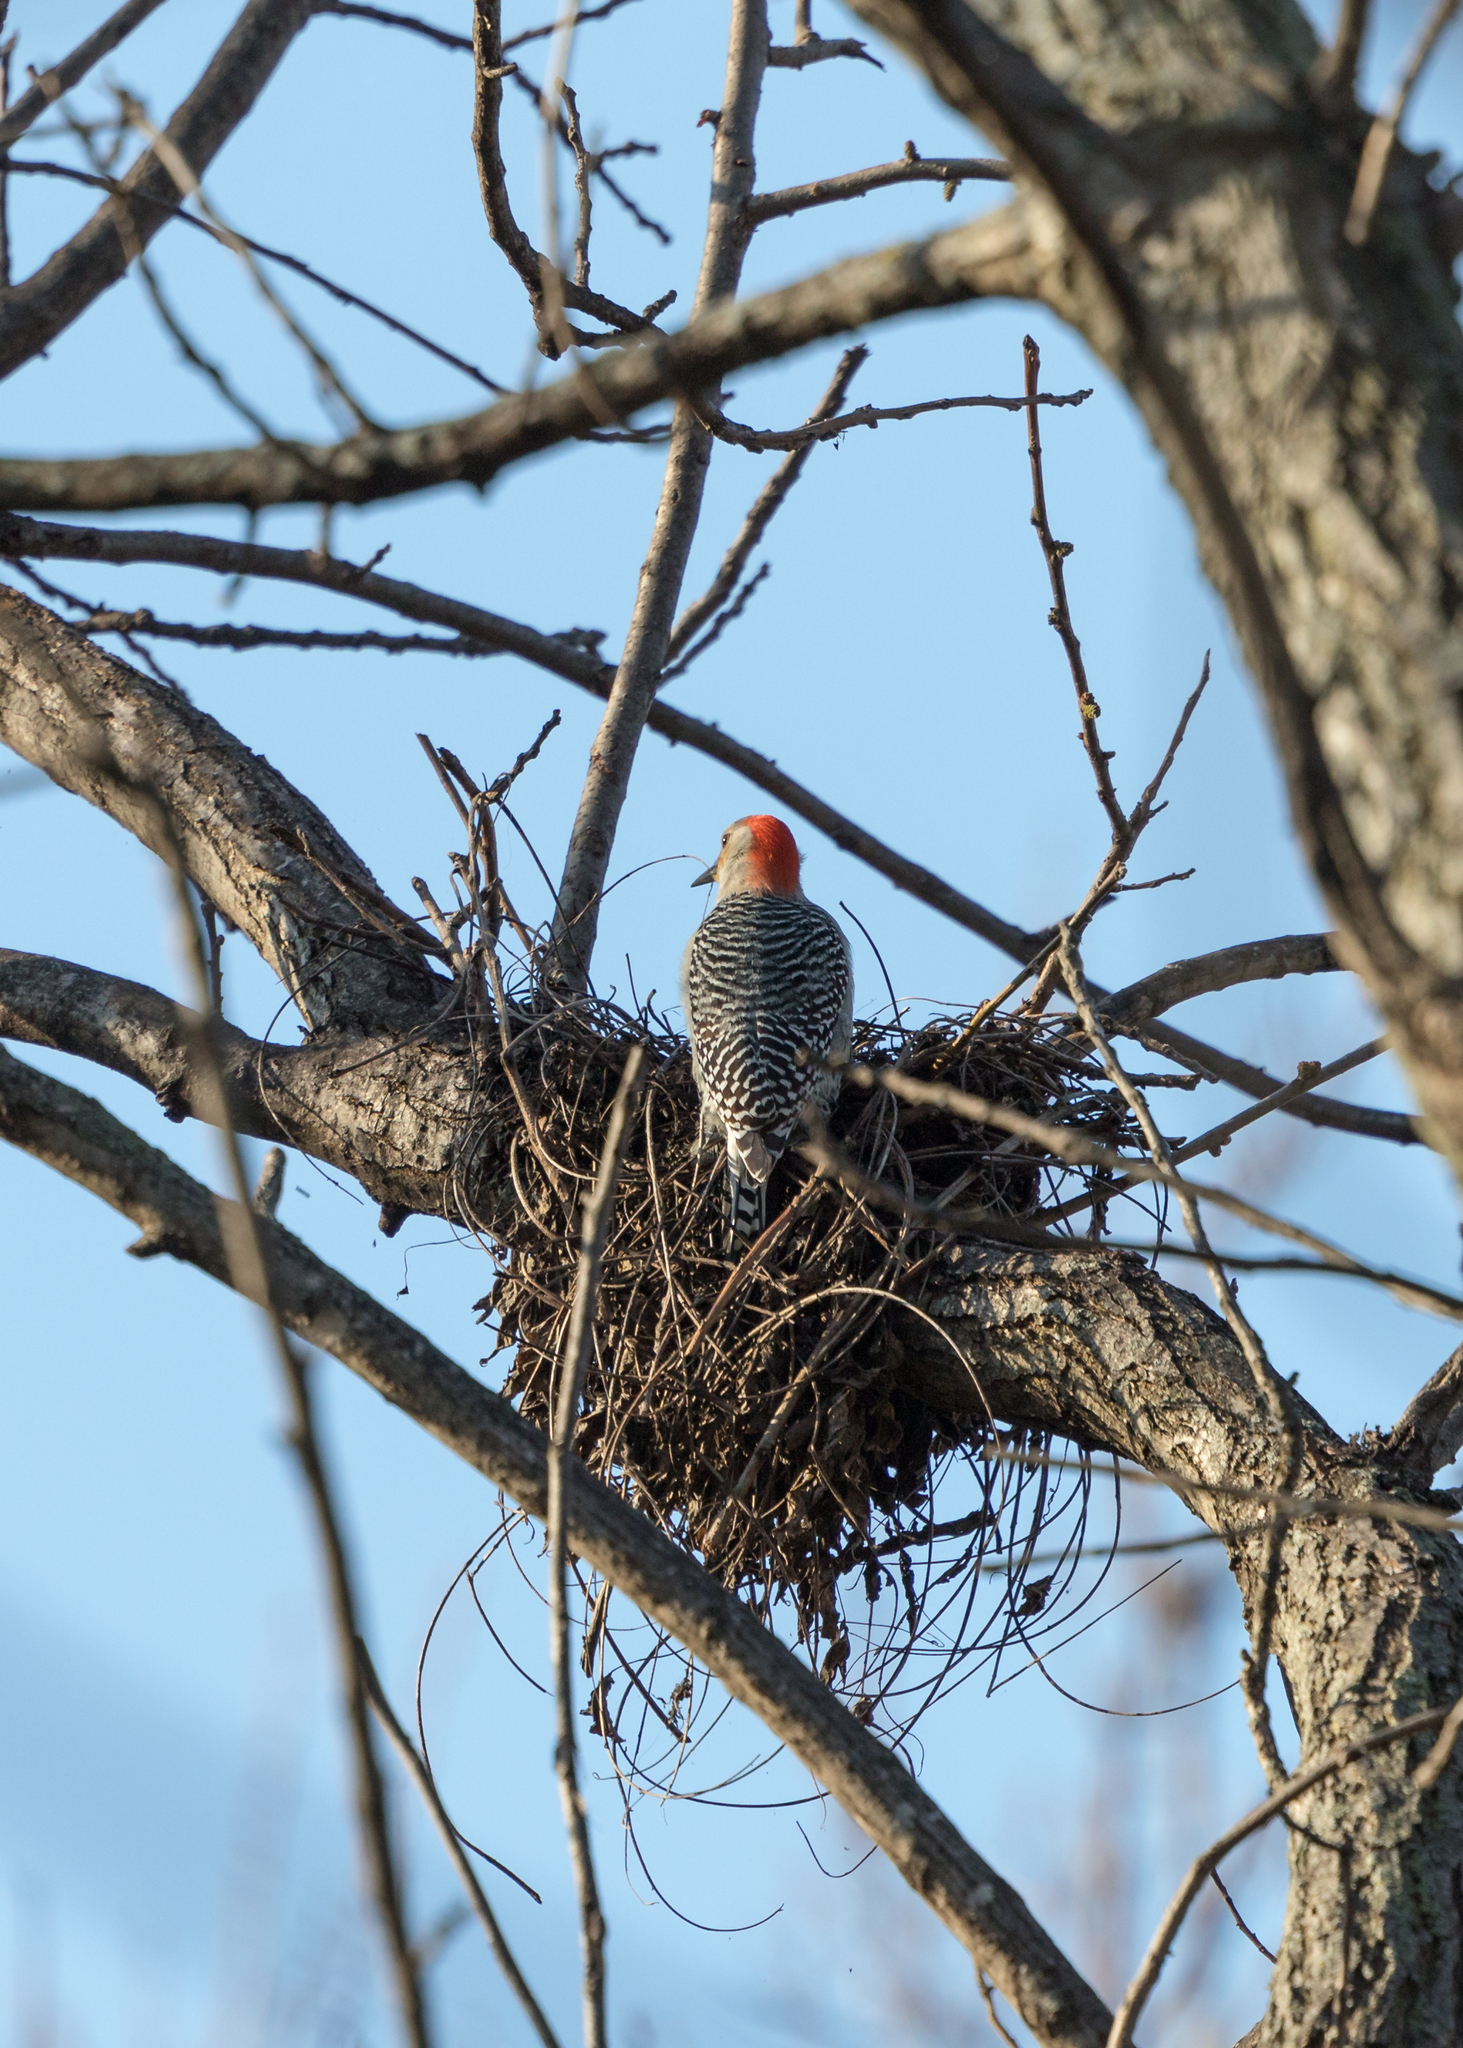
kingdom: Animalia
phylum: Chordata
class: Aves
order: Piciformes
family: Picidae
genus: Melanerpes
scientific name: Melanerpes carolinus
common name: Red-bellied woodpecker
